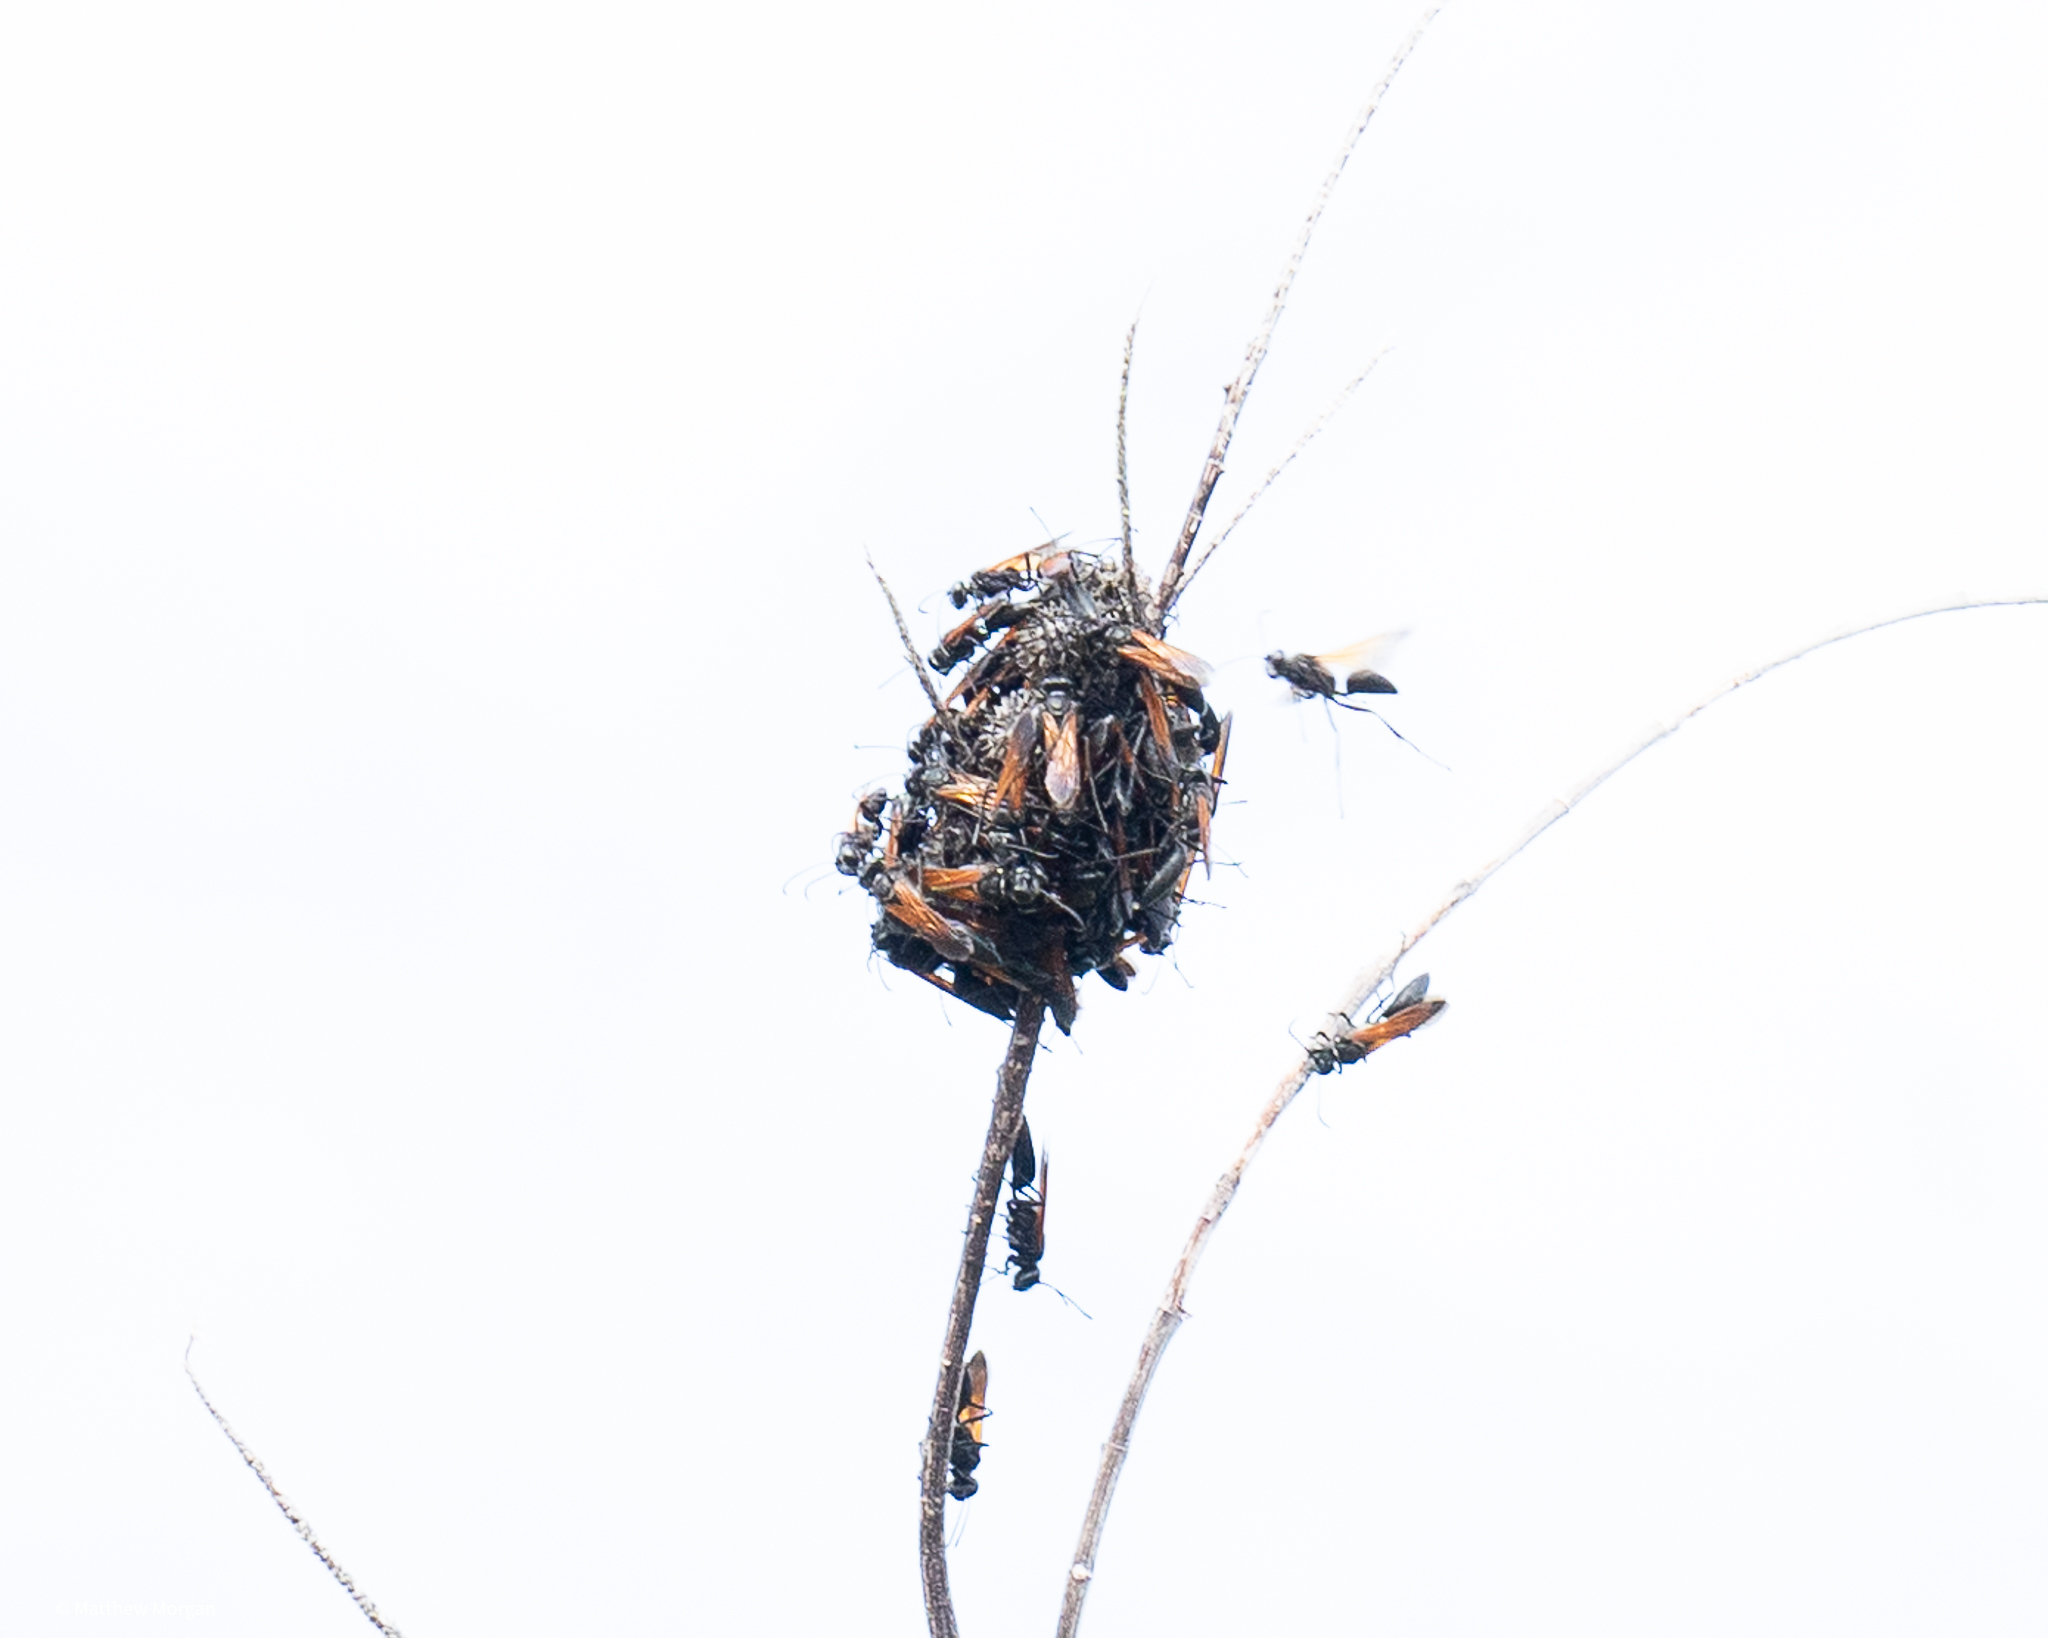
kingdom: Animalia
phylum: Arthropoda
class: Insecta
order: Hymenoptera
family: Sphecidae
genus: Sphex
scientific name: Sphex torridus
